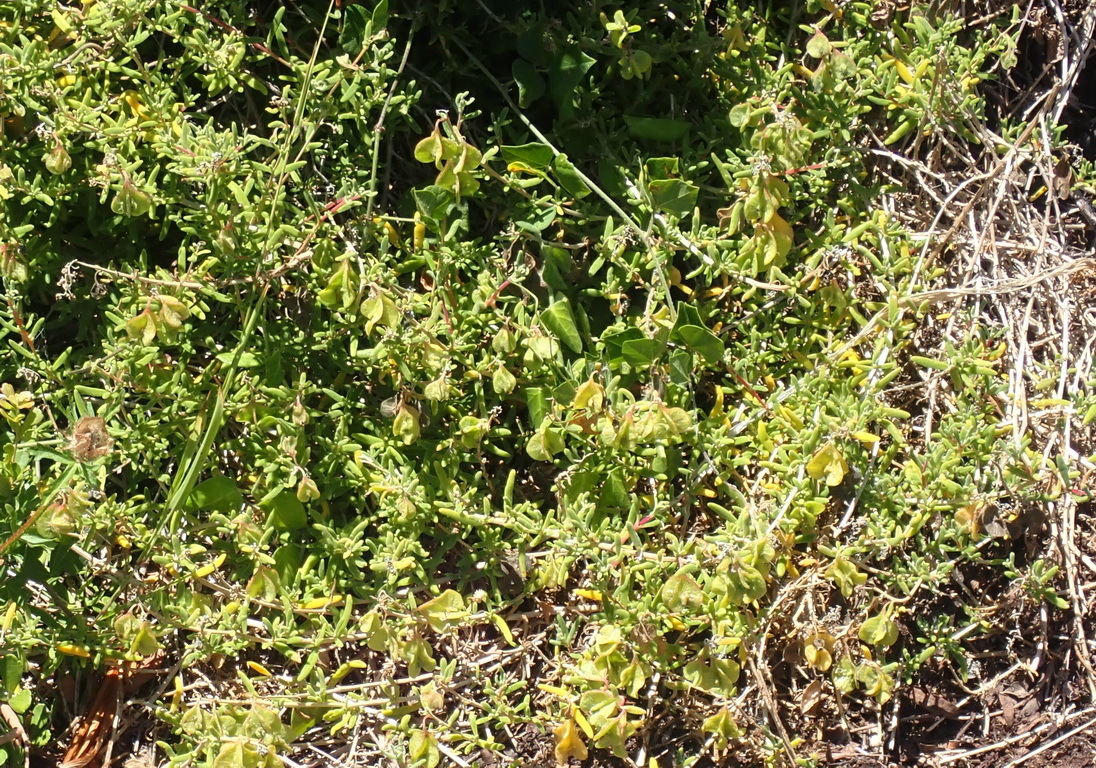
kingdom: Plantae
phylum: Tracheophyta
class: Magnoliopsida
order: Caryophyllales
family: Aizoaceae
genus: Tetragonia
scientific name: Tetragonia fruticosa
